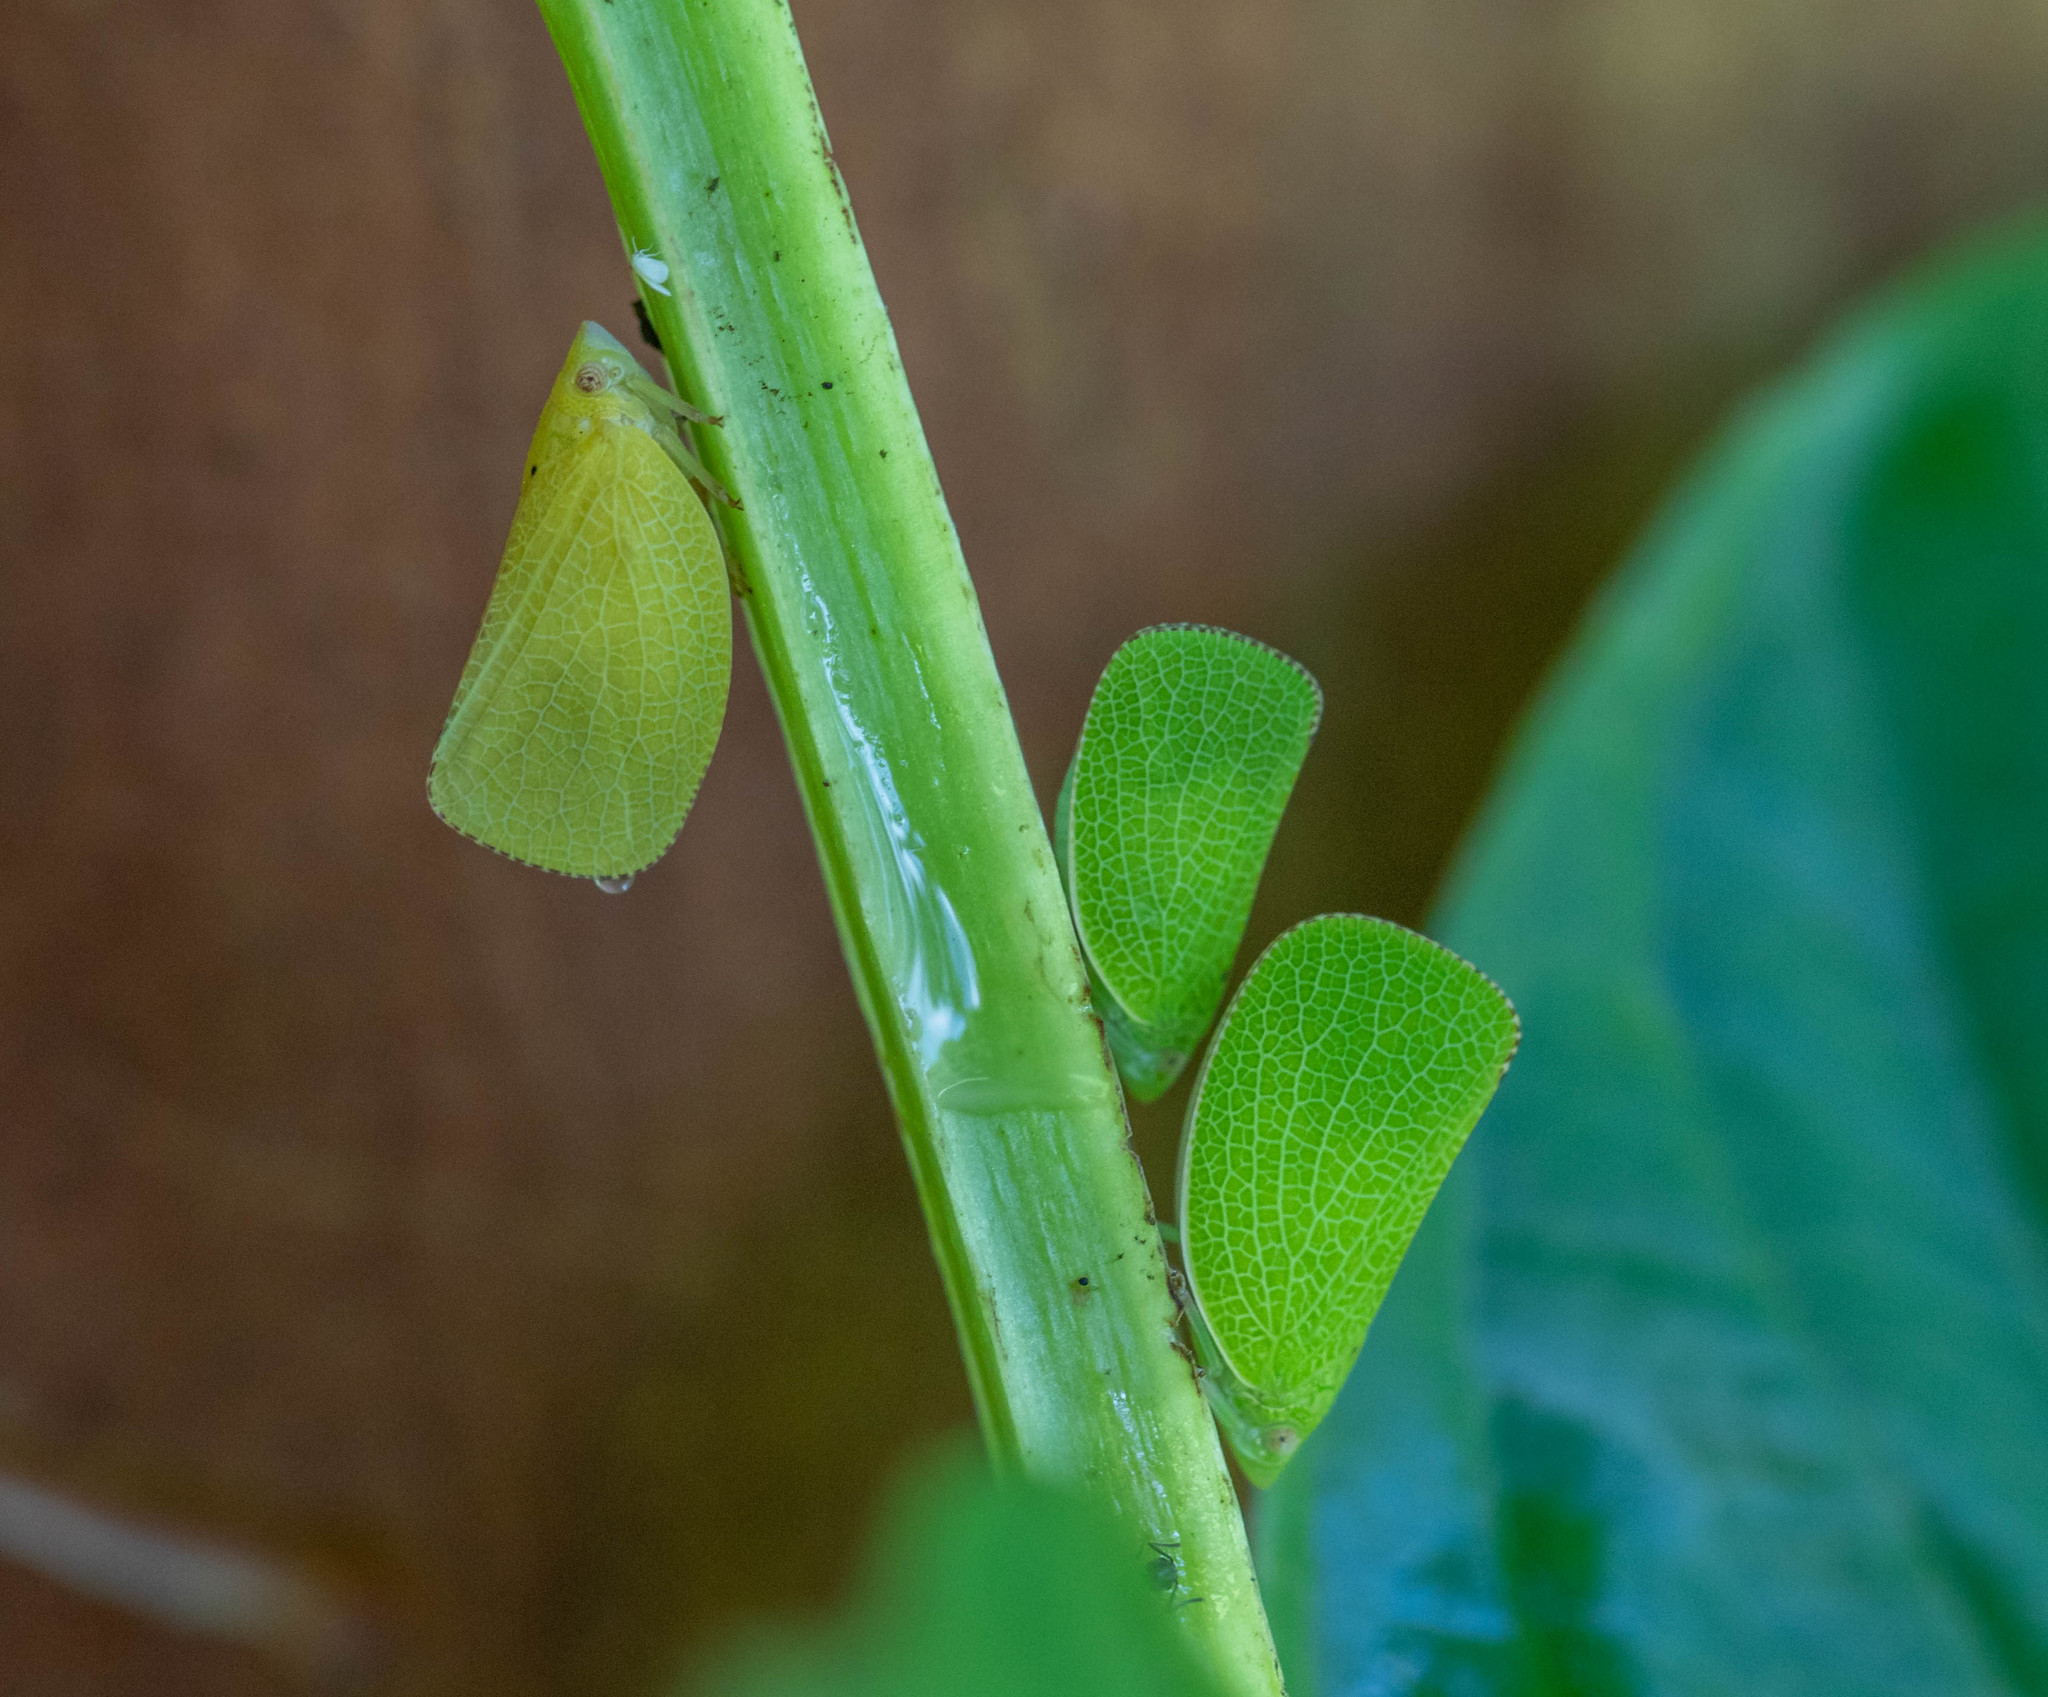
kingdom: Animalia
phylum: Arthropoda
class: Insecta
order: Hemiptera
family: Acanaloniidae
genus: Acanalonia
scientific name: Acanalonia conica
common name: Green cone-headed planthopper
